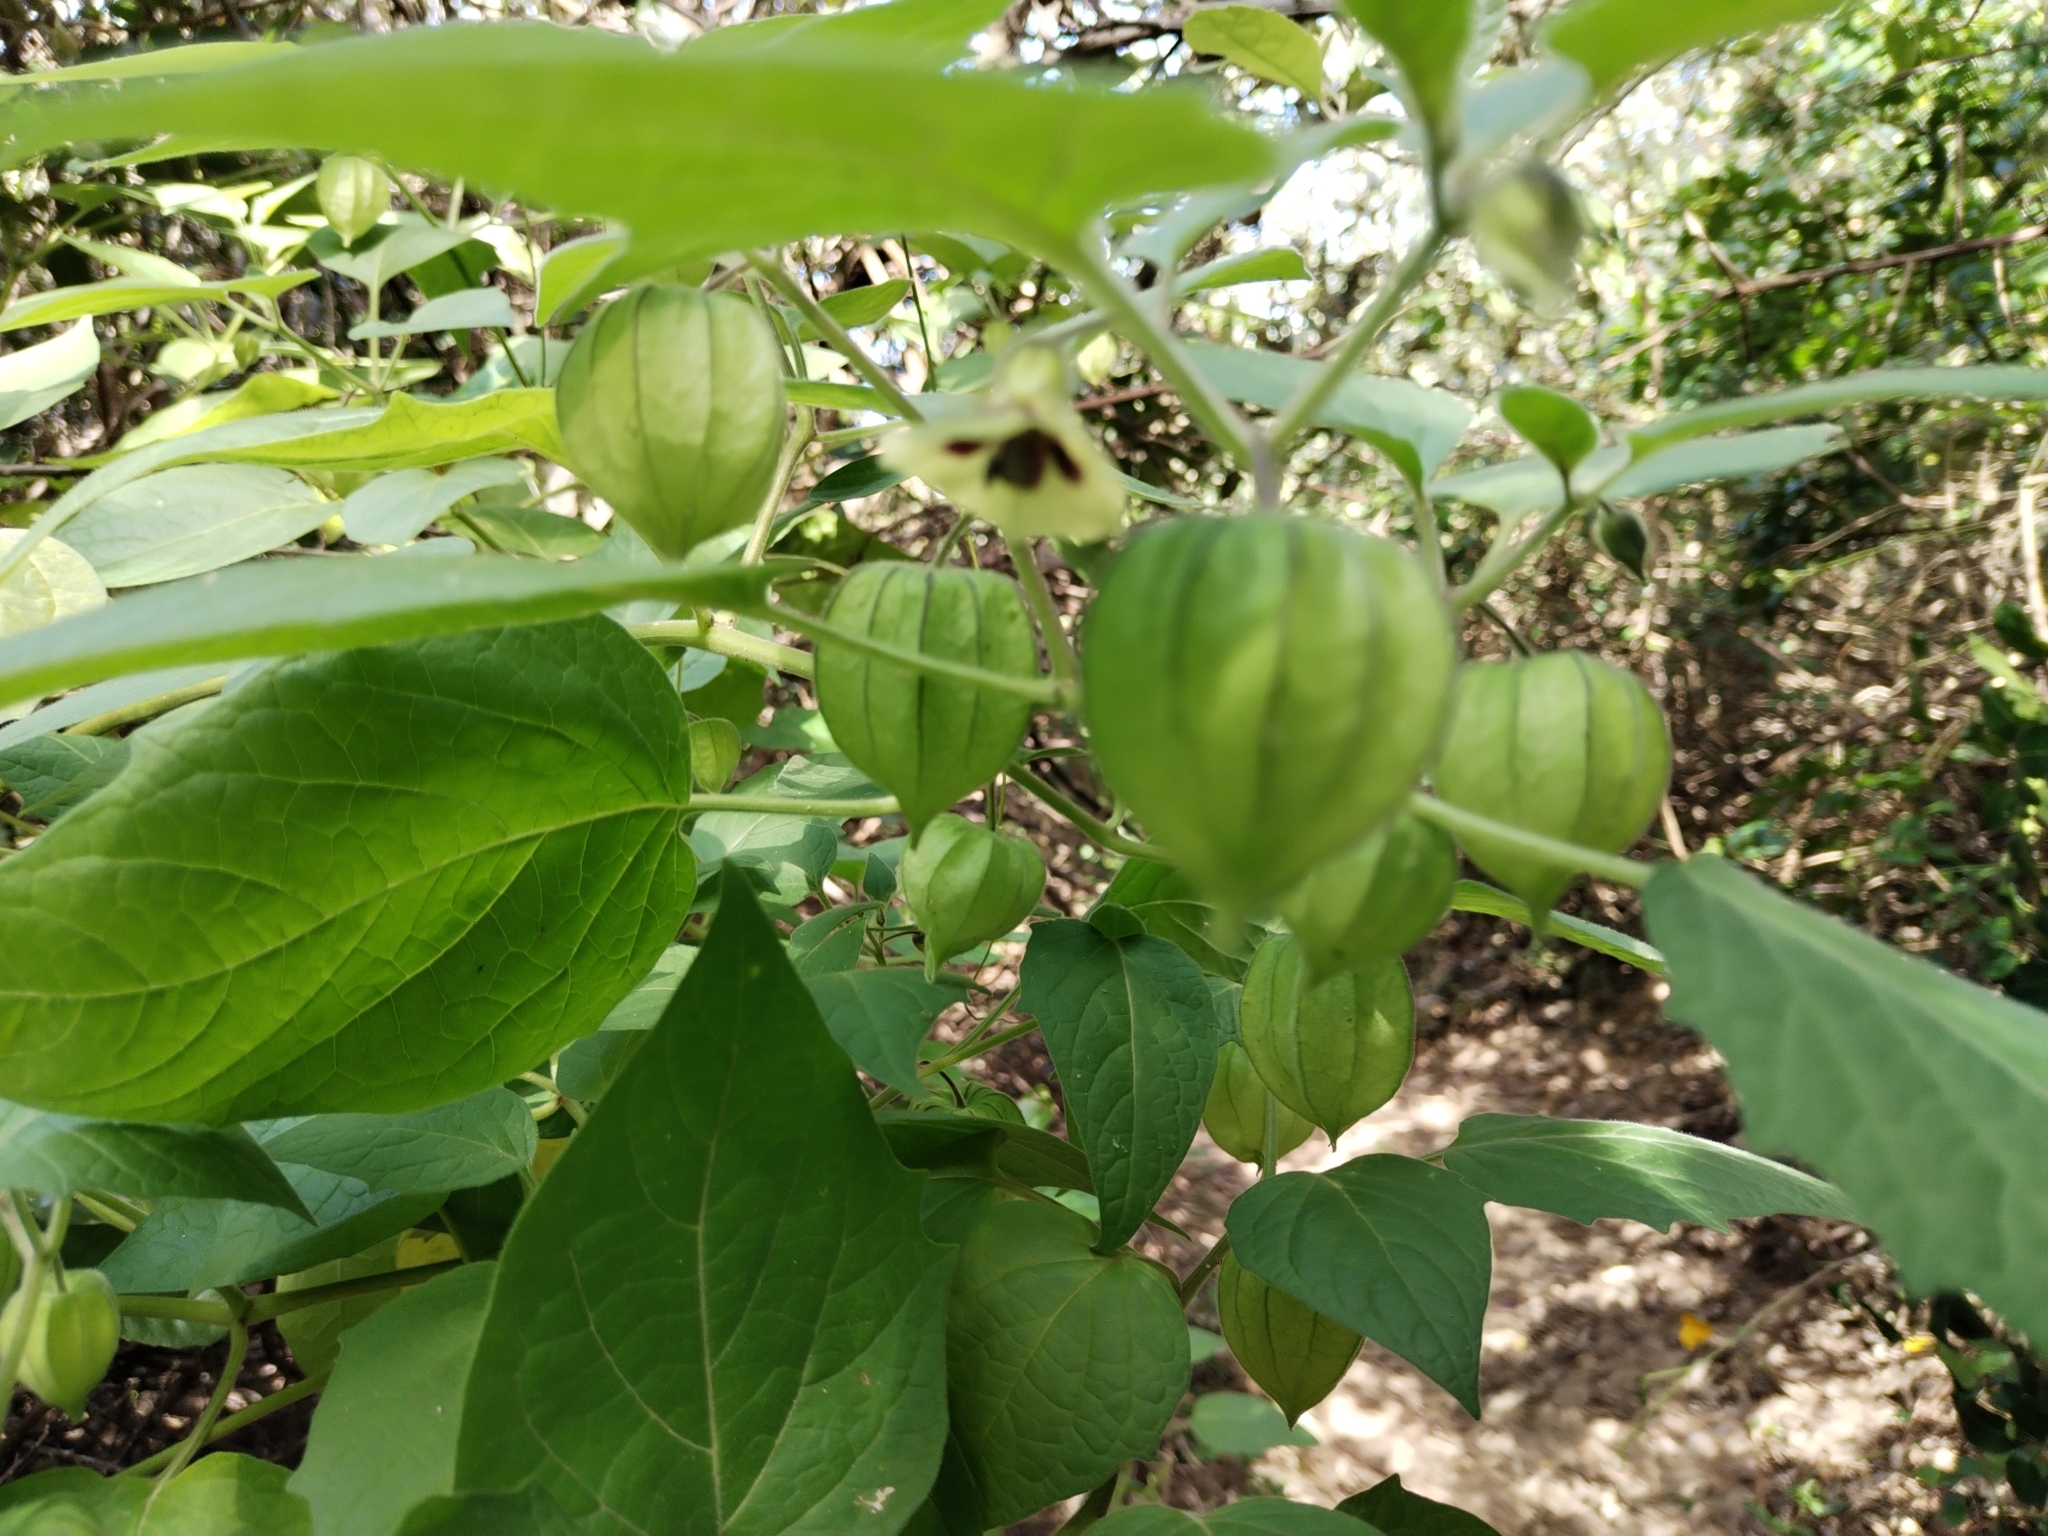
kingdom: Plantae
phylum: Tracheophyta
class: Magnoliopsida
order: Solanales
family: Solanaceae
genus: Physalis
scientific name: Physalis peruviana
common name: Cape-gooseberry
